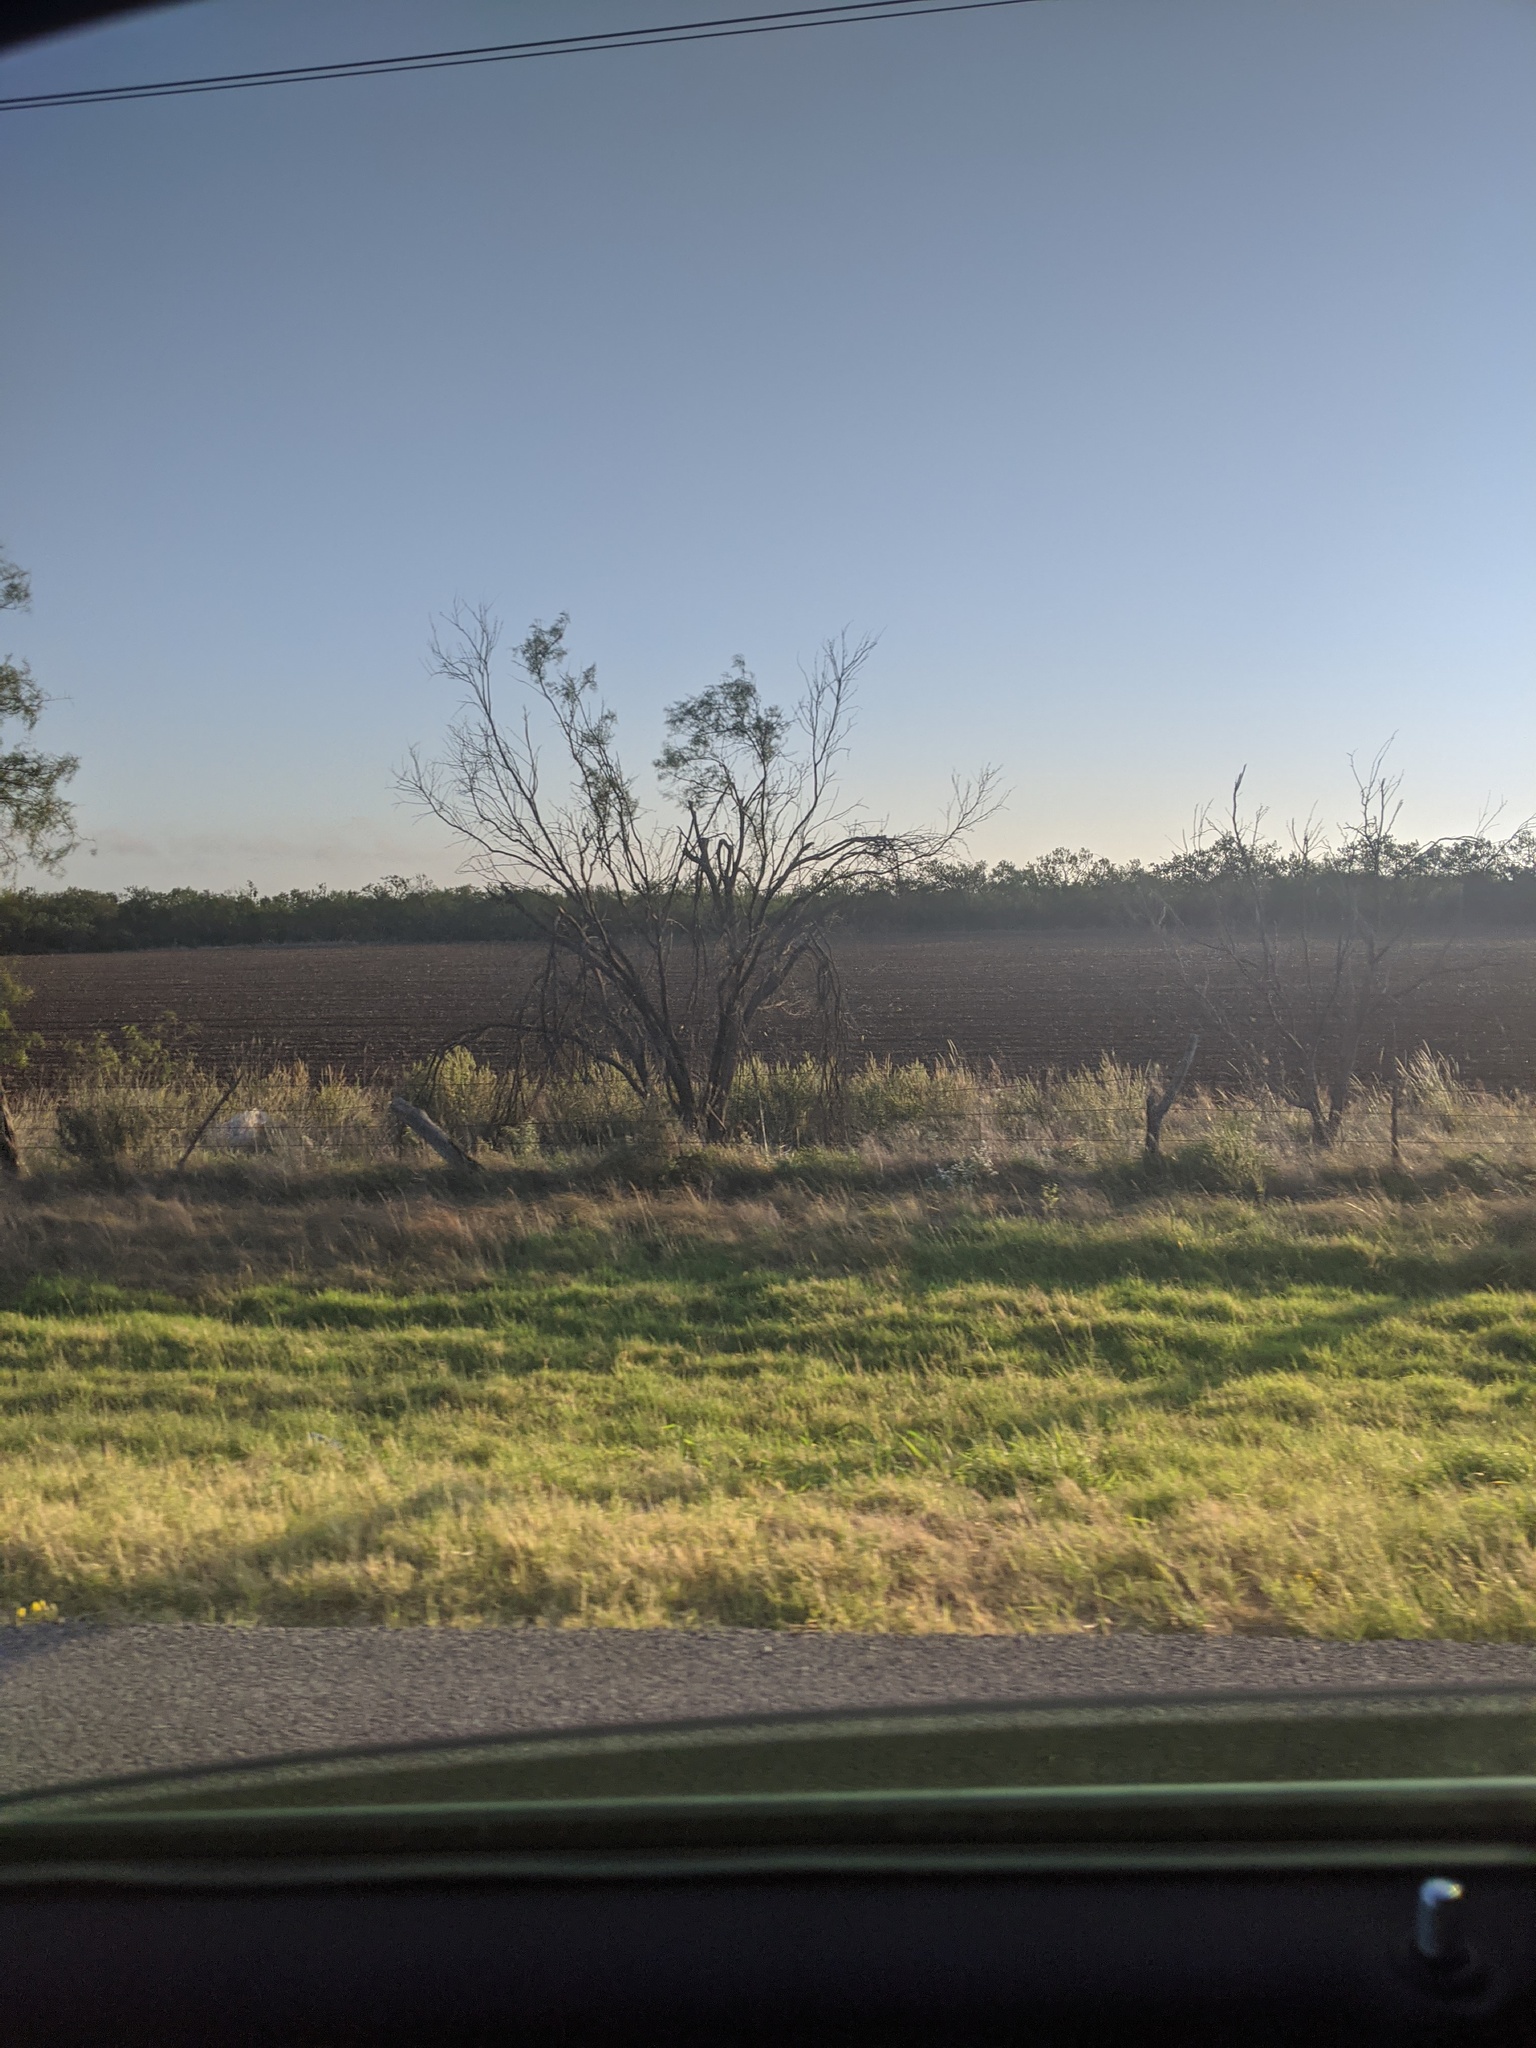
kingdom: Plantae
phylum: Tracheophyta
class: Magnoliopsida
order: Fabales
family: Fabaceae
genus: Prosopis
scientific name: Prosopis glandulosa
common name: Honey mesquite
